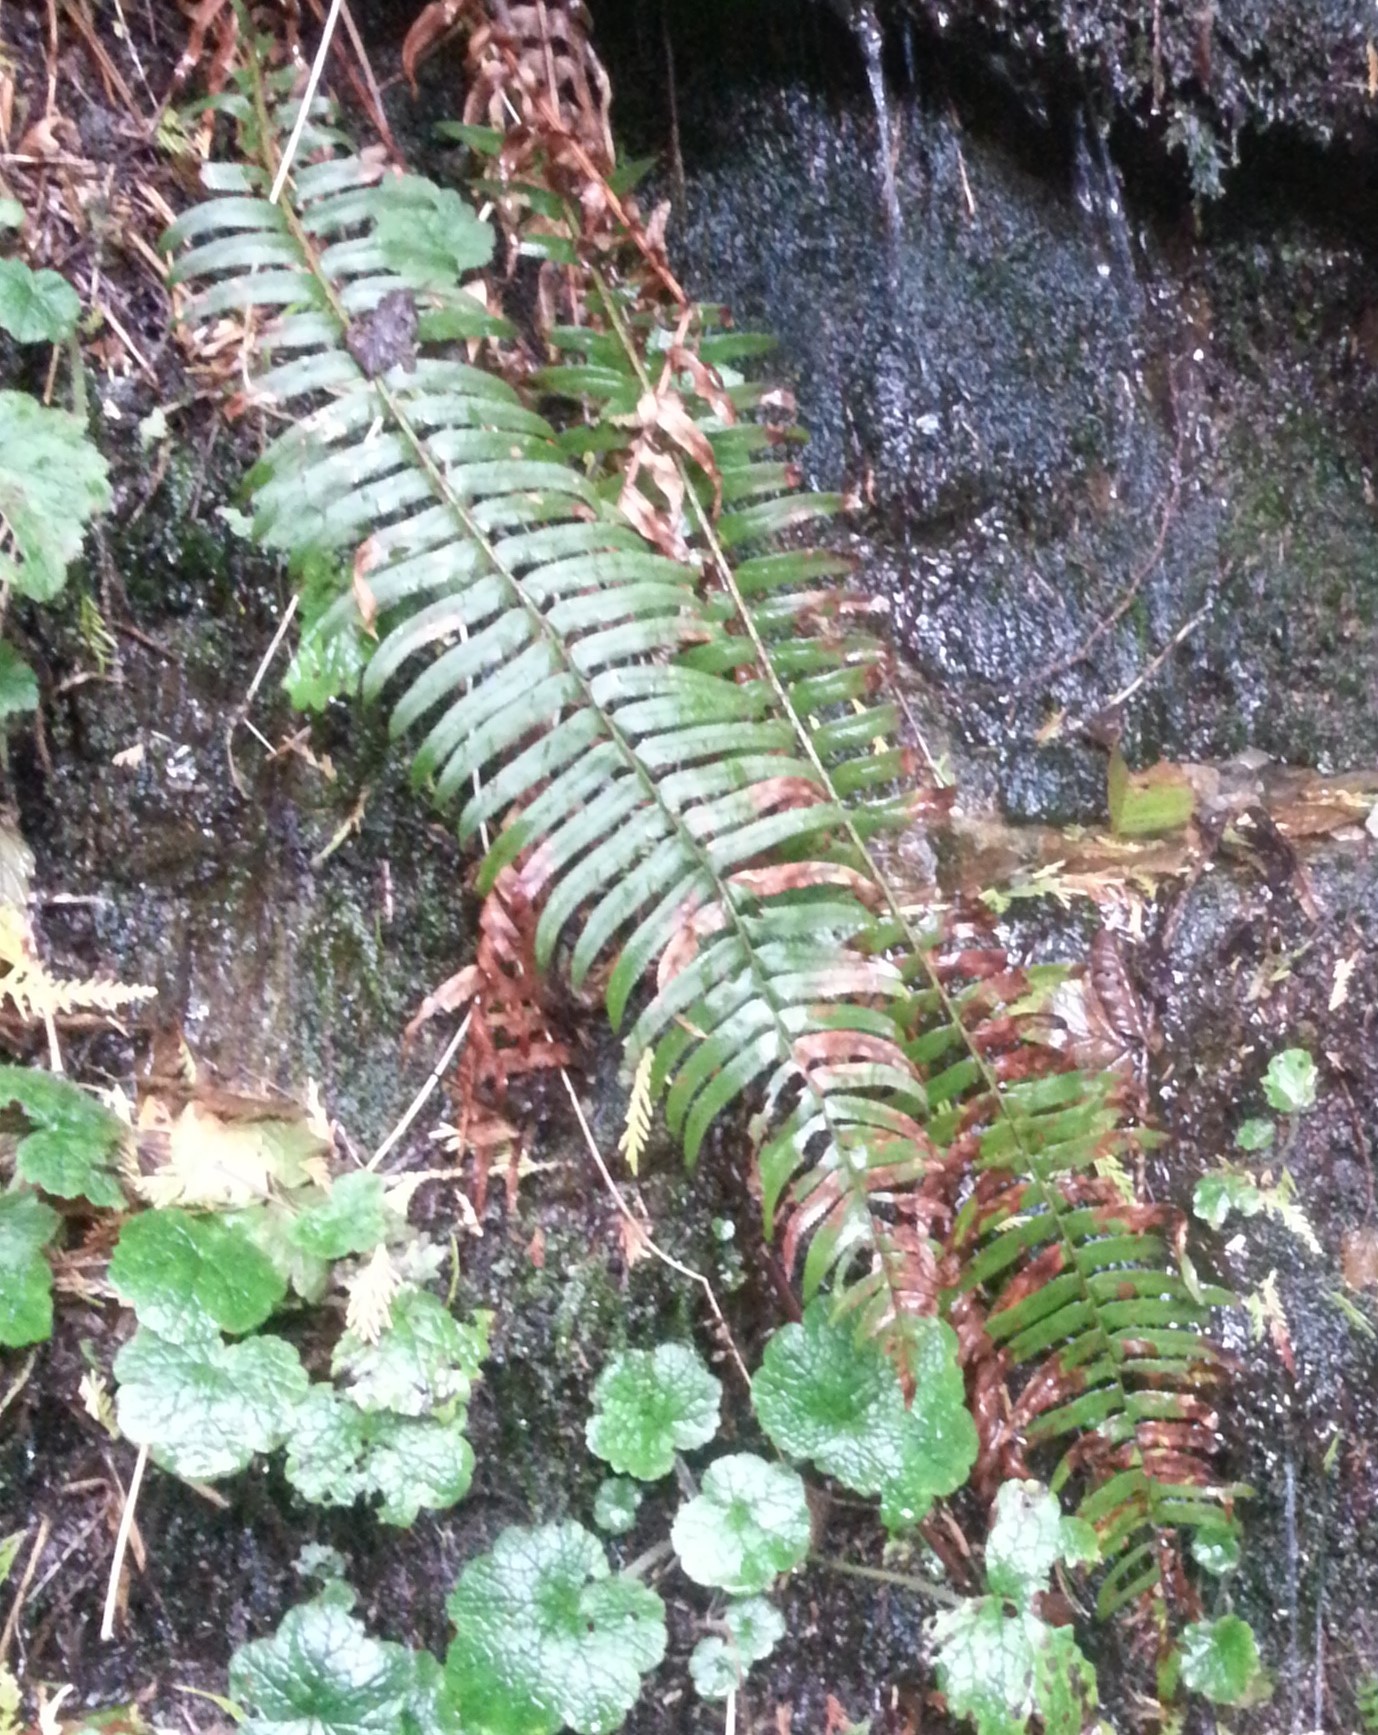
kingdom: Plantae
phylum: Tracheophyta
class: Polypodiopsida
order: Polypodiales
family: Dryopteridaceae
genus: Polystichum
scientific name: Polystichum munitum
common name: Western sword-fern
